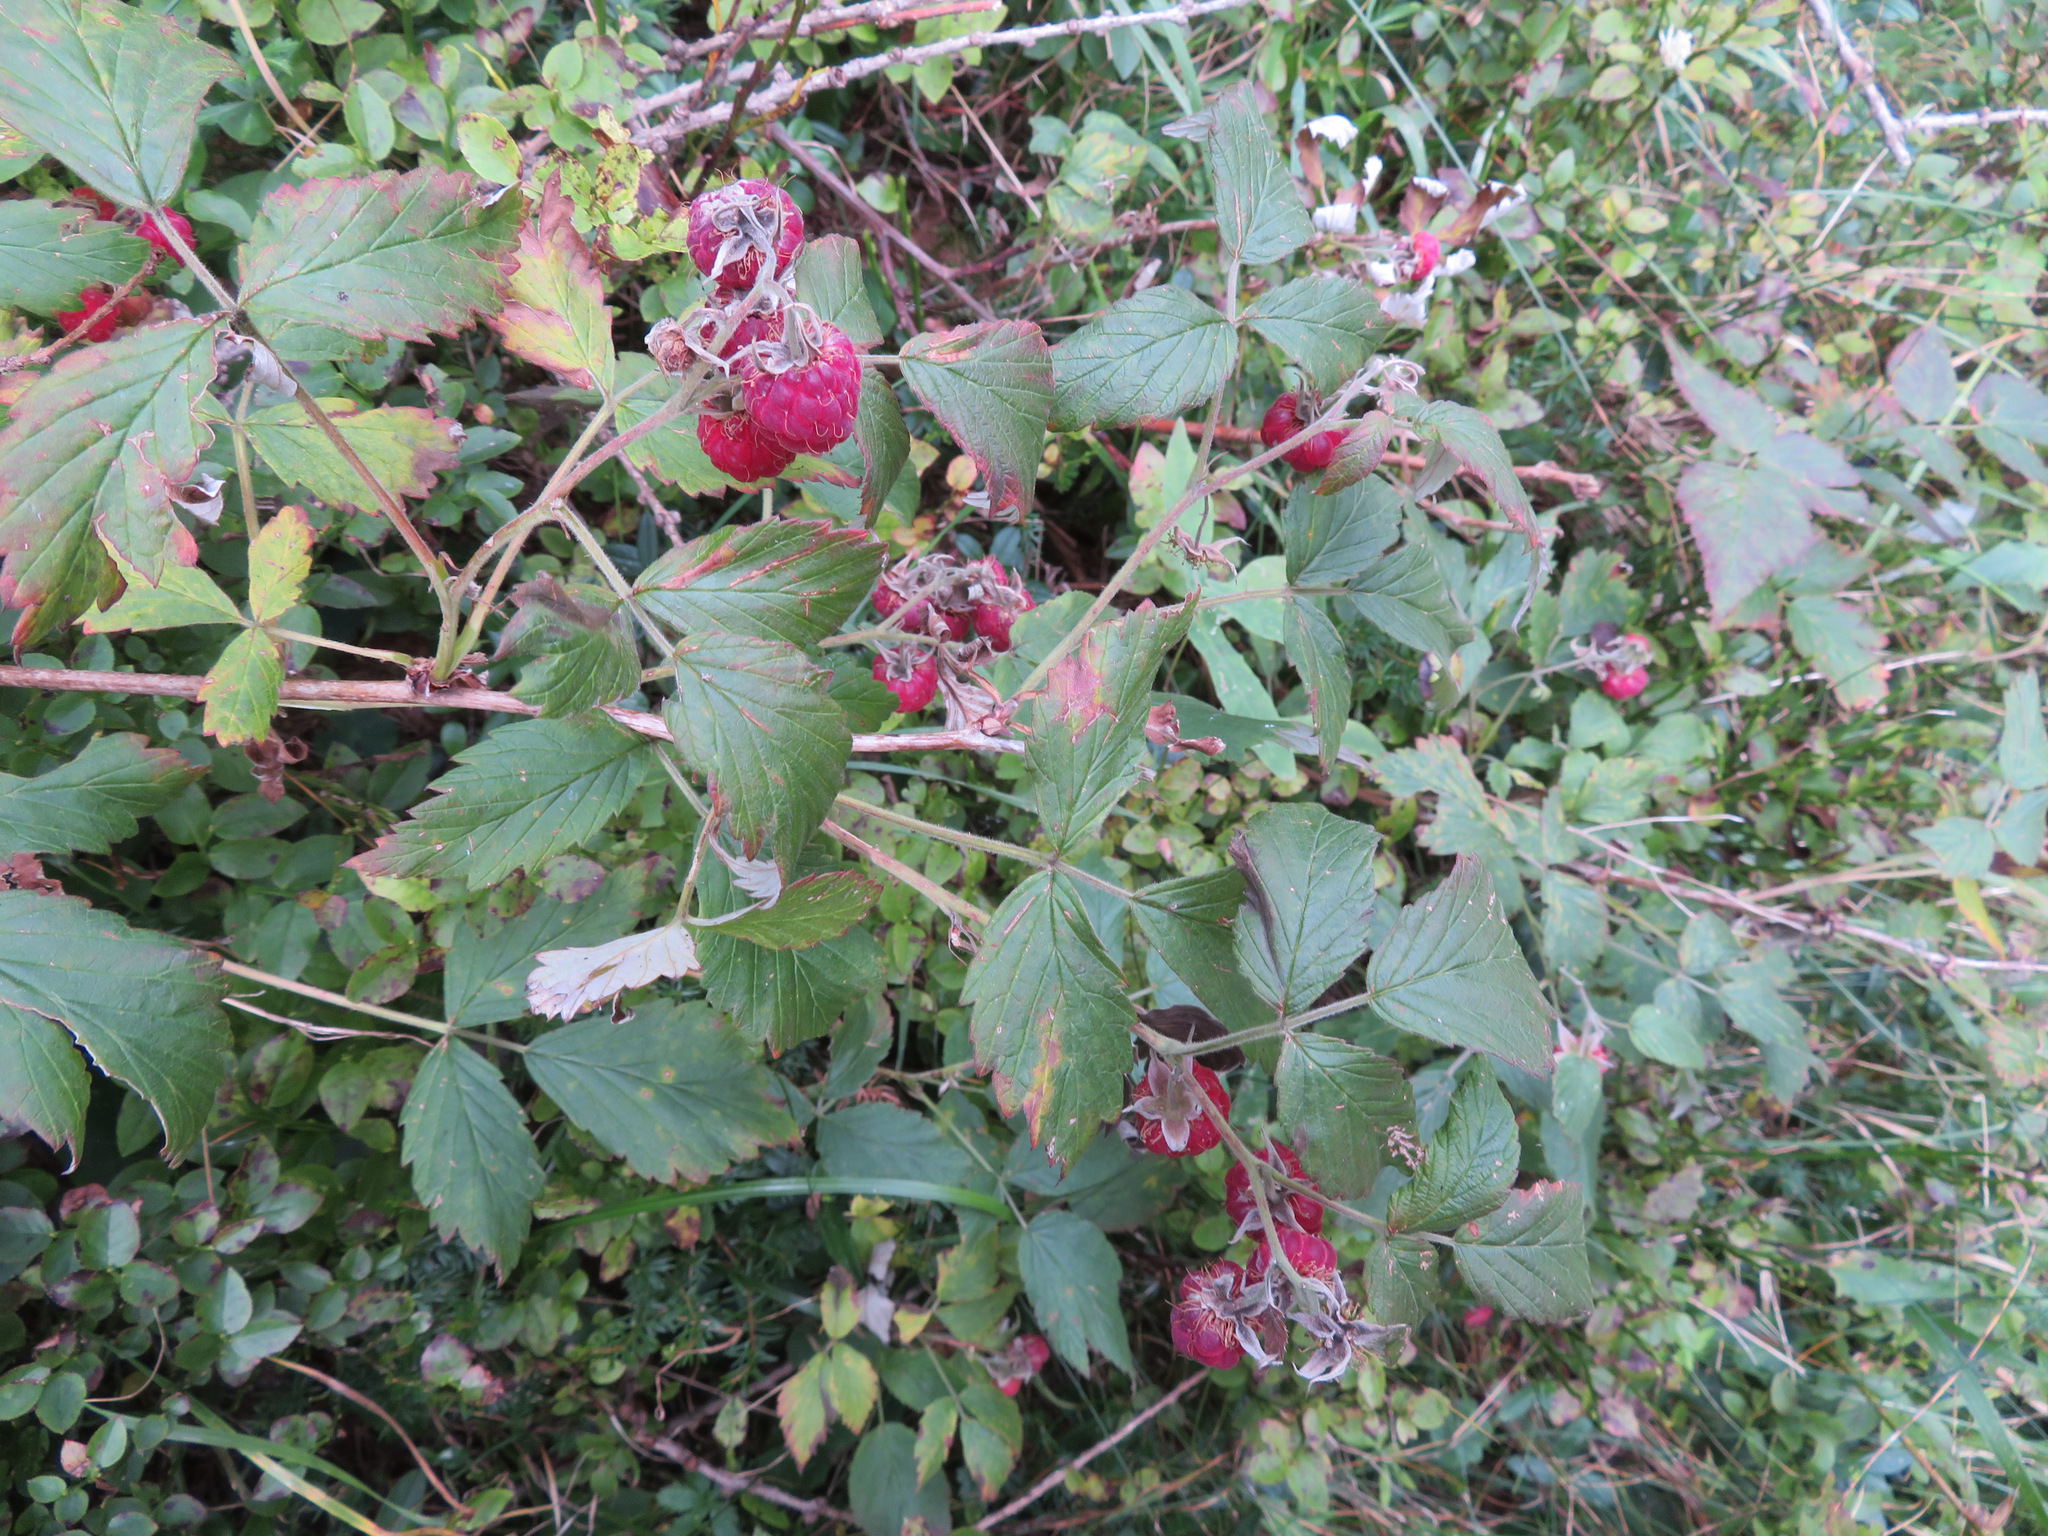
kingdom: Plantae
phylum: Tracheophyta
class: Magnoliopsida
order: Rosales
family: Rosaceae
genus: Rubus
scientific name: Rubus idaeus
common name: Raspberry
